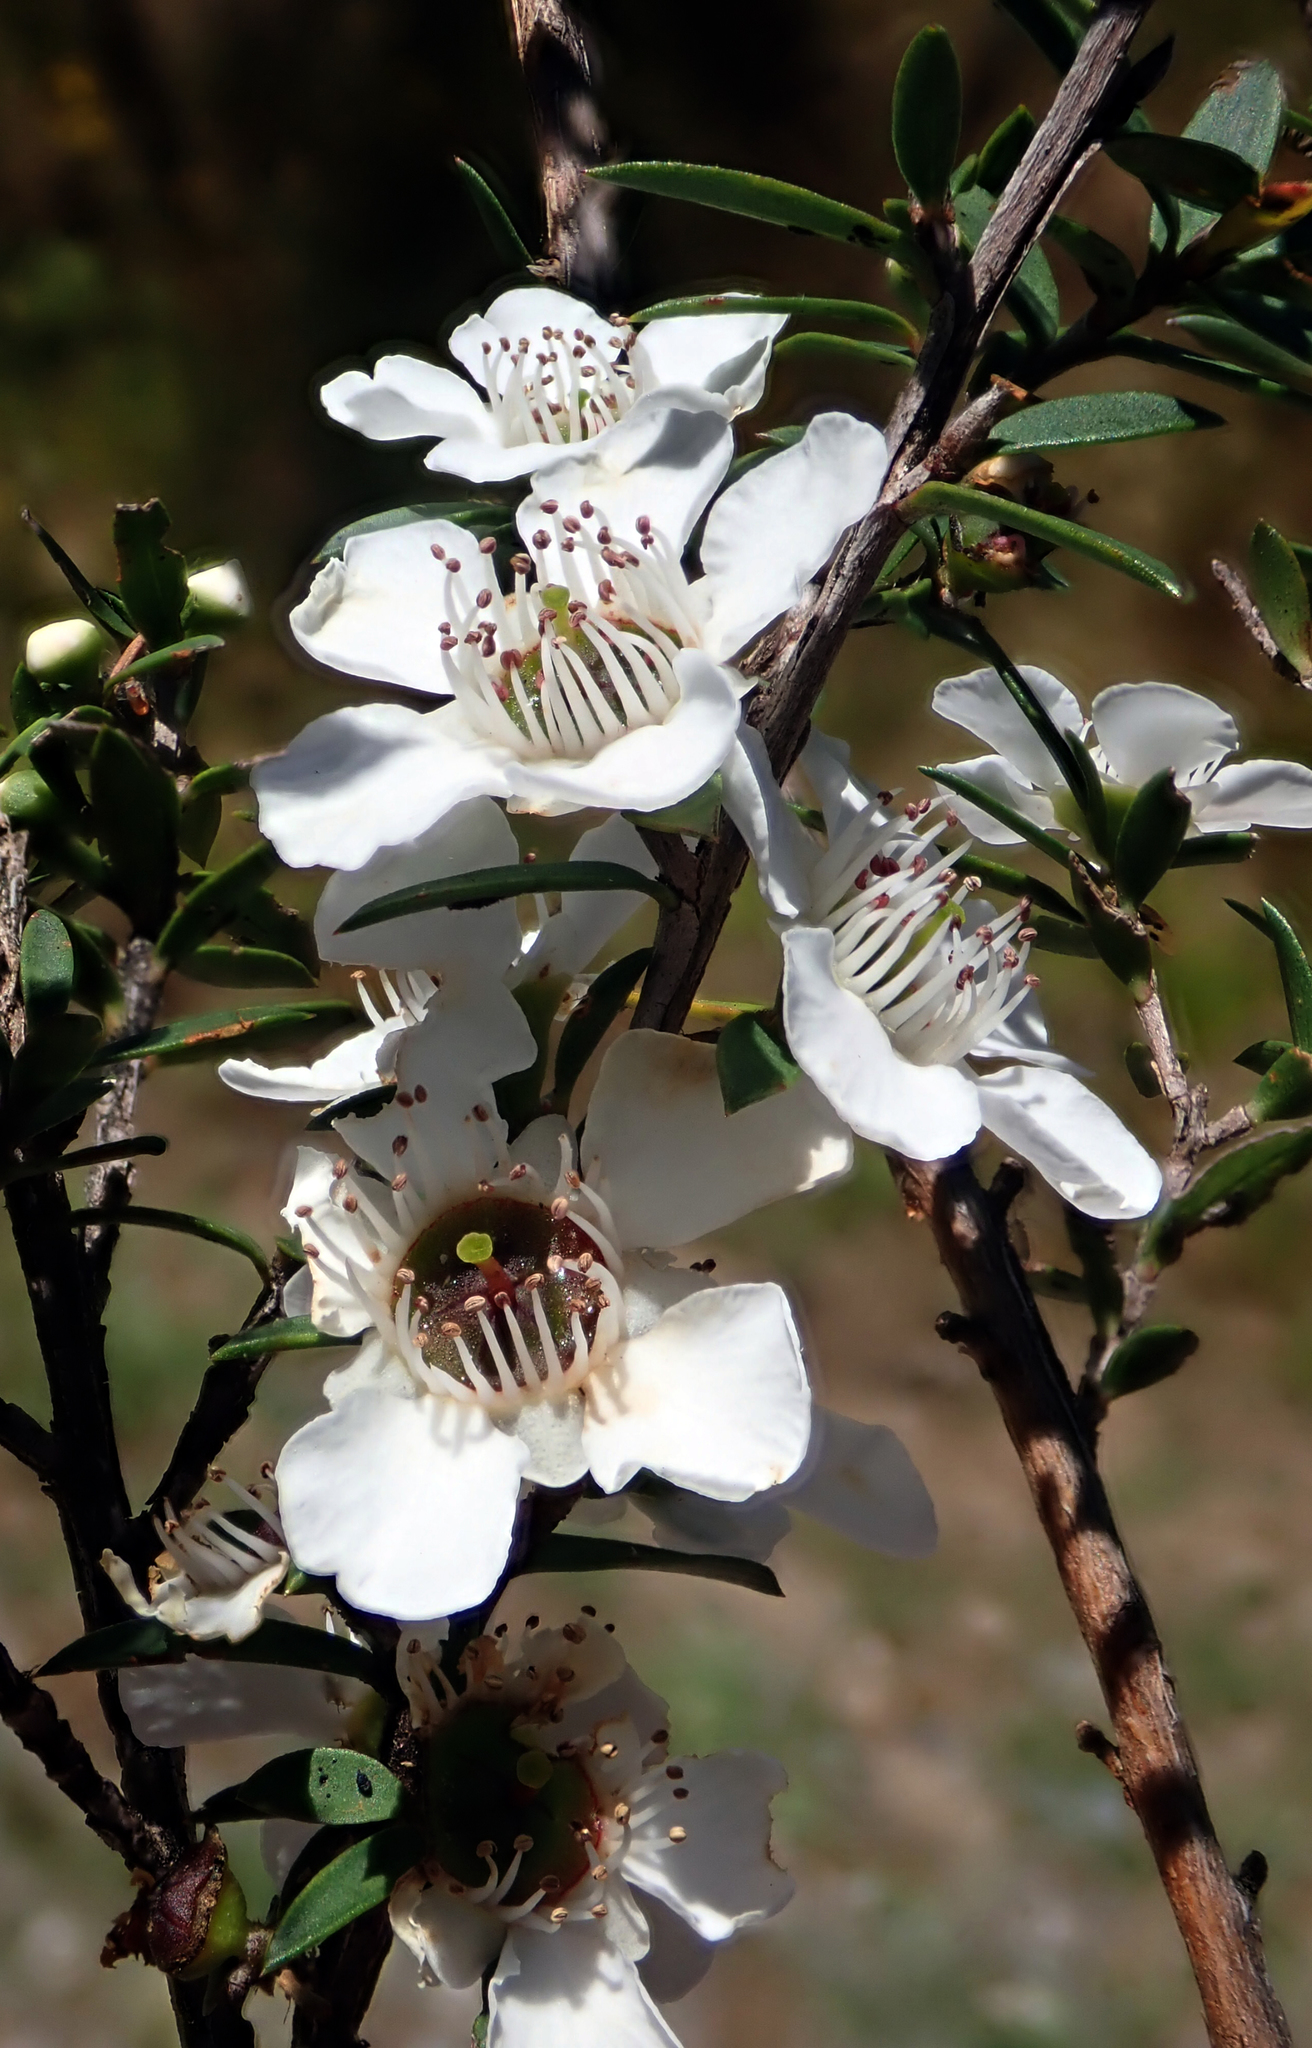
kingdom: Plantae
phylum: Tracheophyta
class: Magnoliopsida
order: Myrtales
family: Myrtaceae
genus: Leptospermum
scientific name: Leptospermum scoparium
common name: Broom tea-tree
